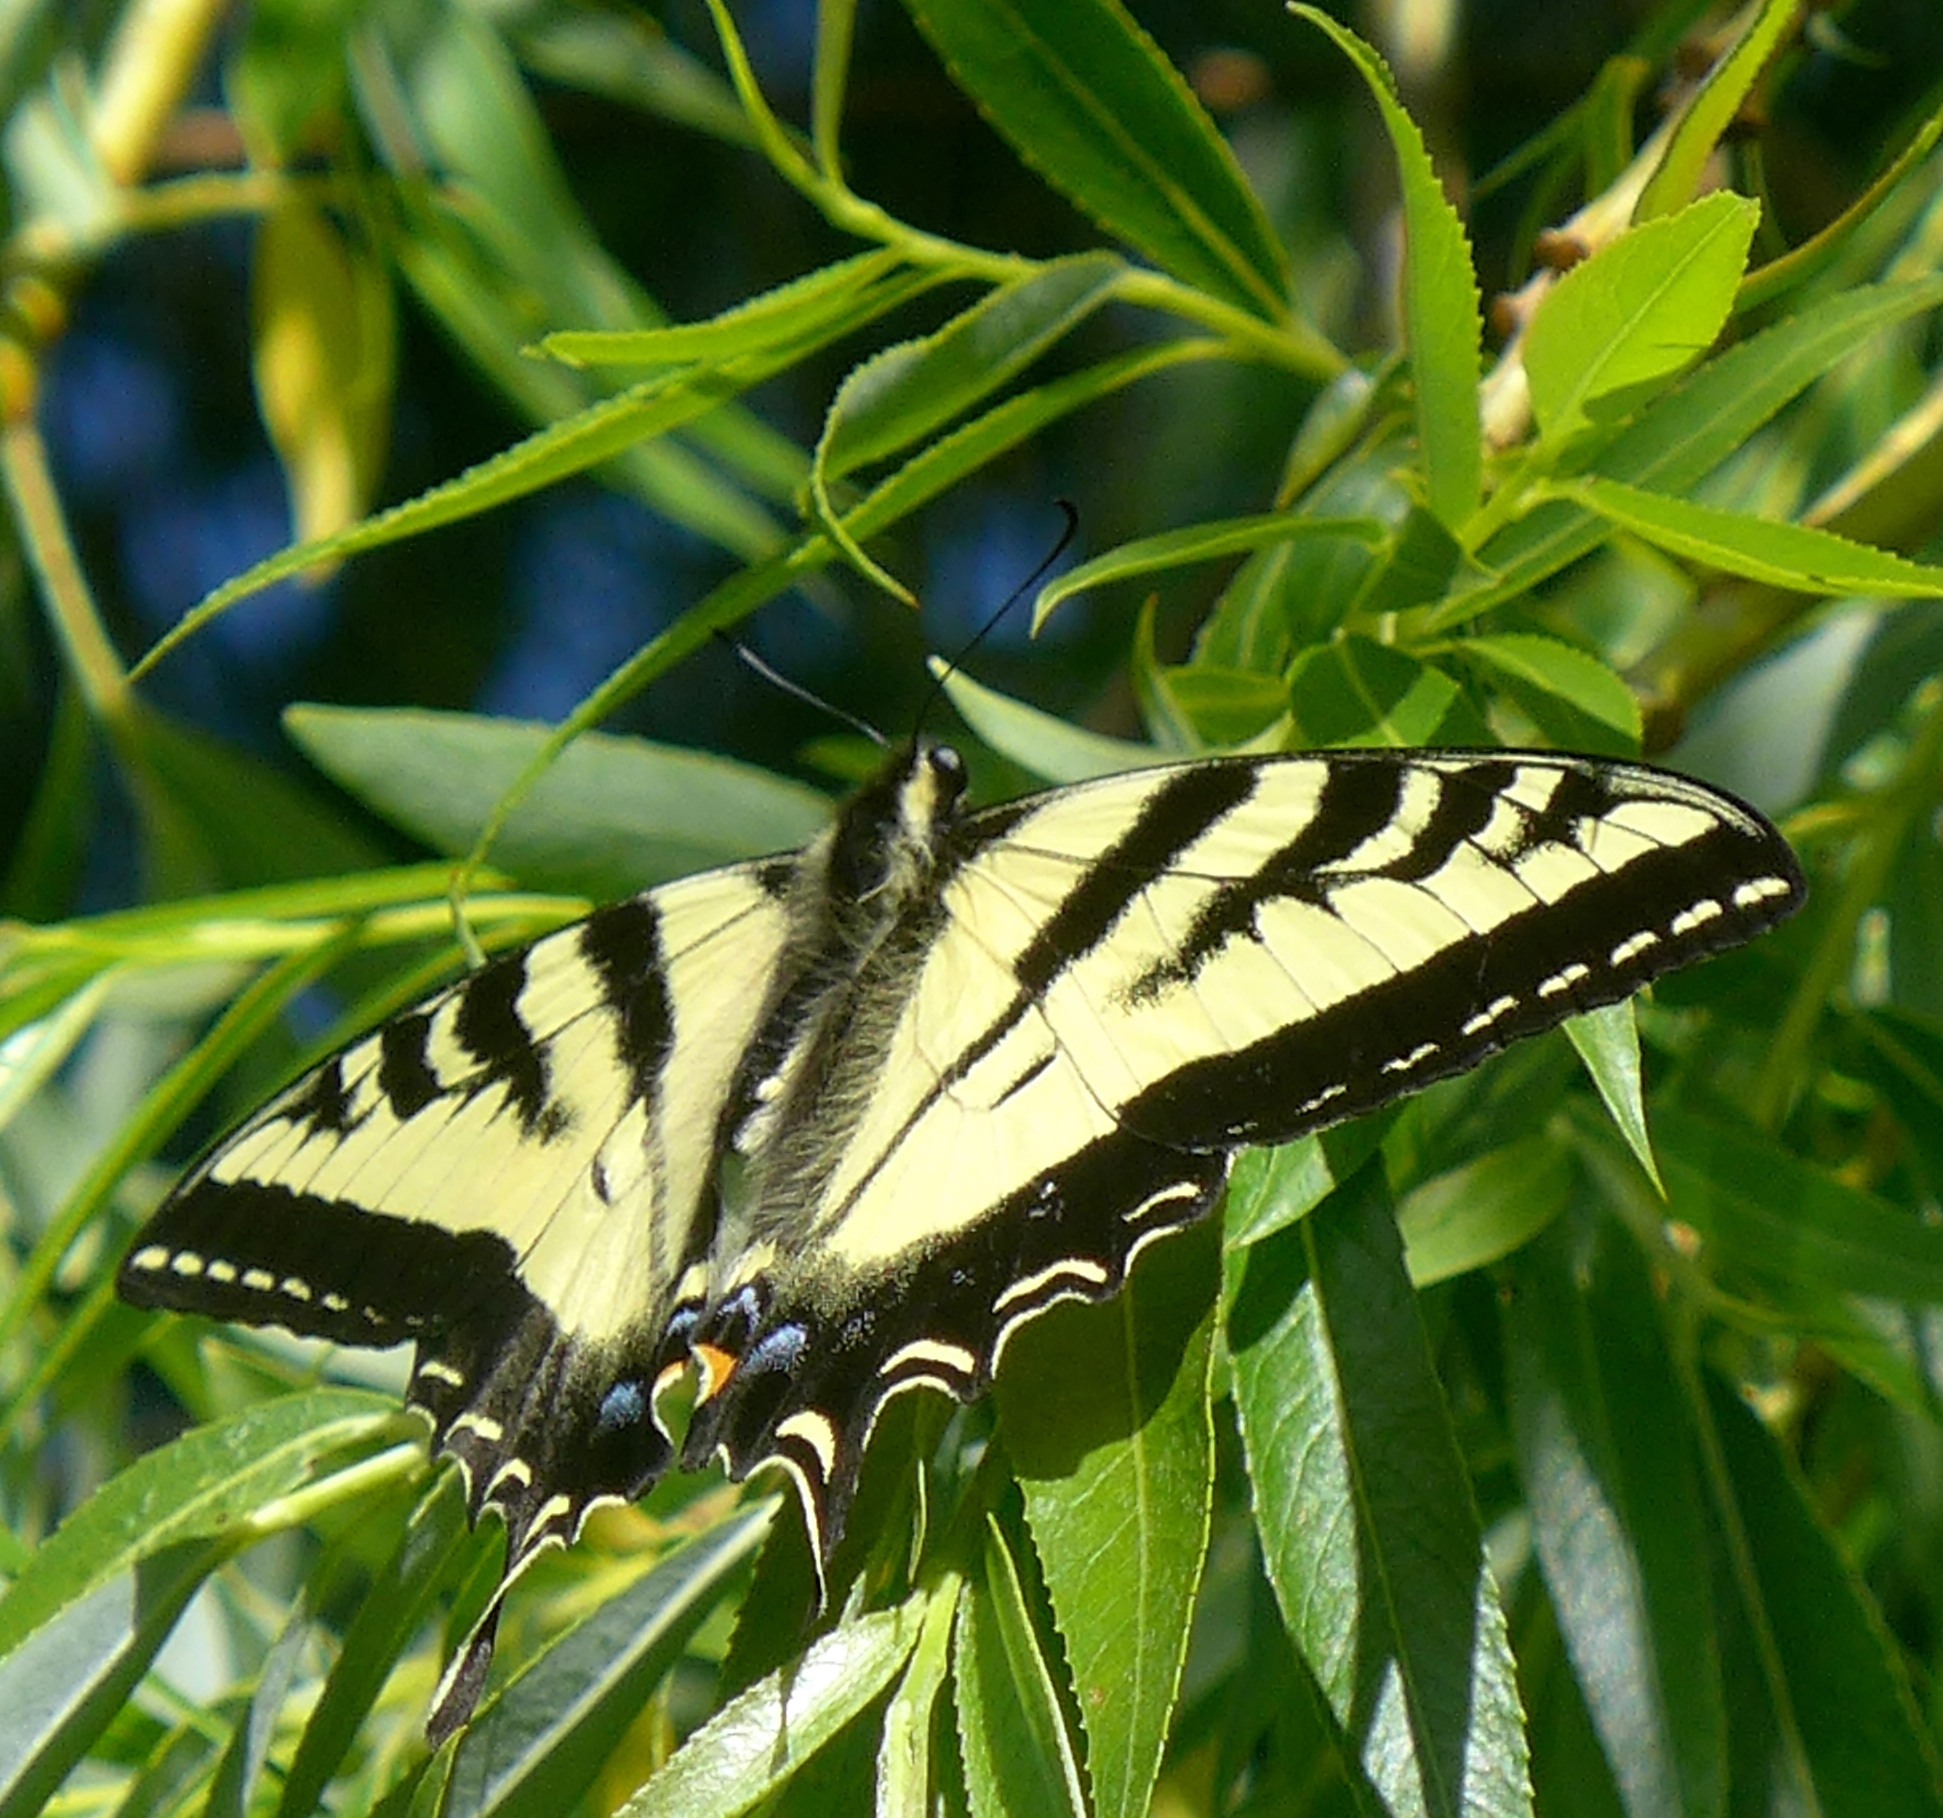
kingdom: Animalia
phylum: Arthropoda
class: Insecta
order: Lepidoptera
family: Papilionidae
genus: Papilio
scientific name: Papilio rutulus
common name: Western tiger swallowtail
